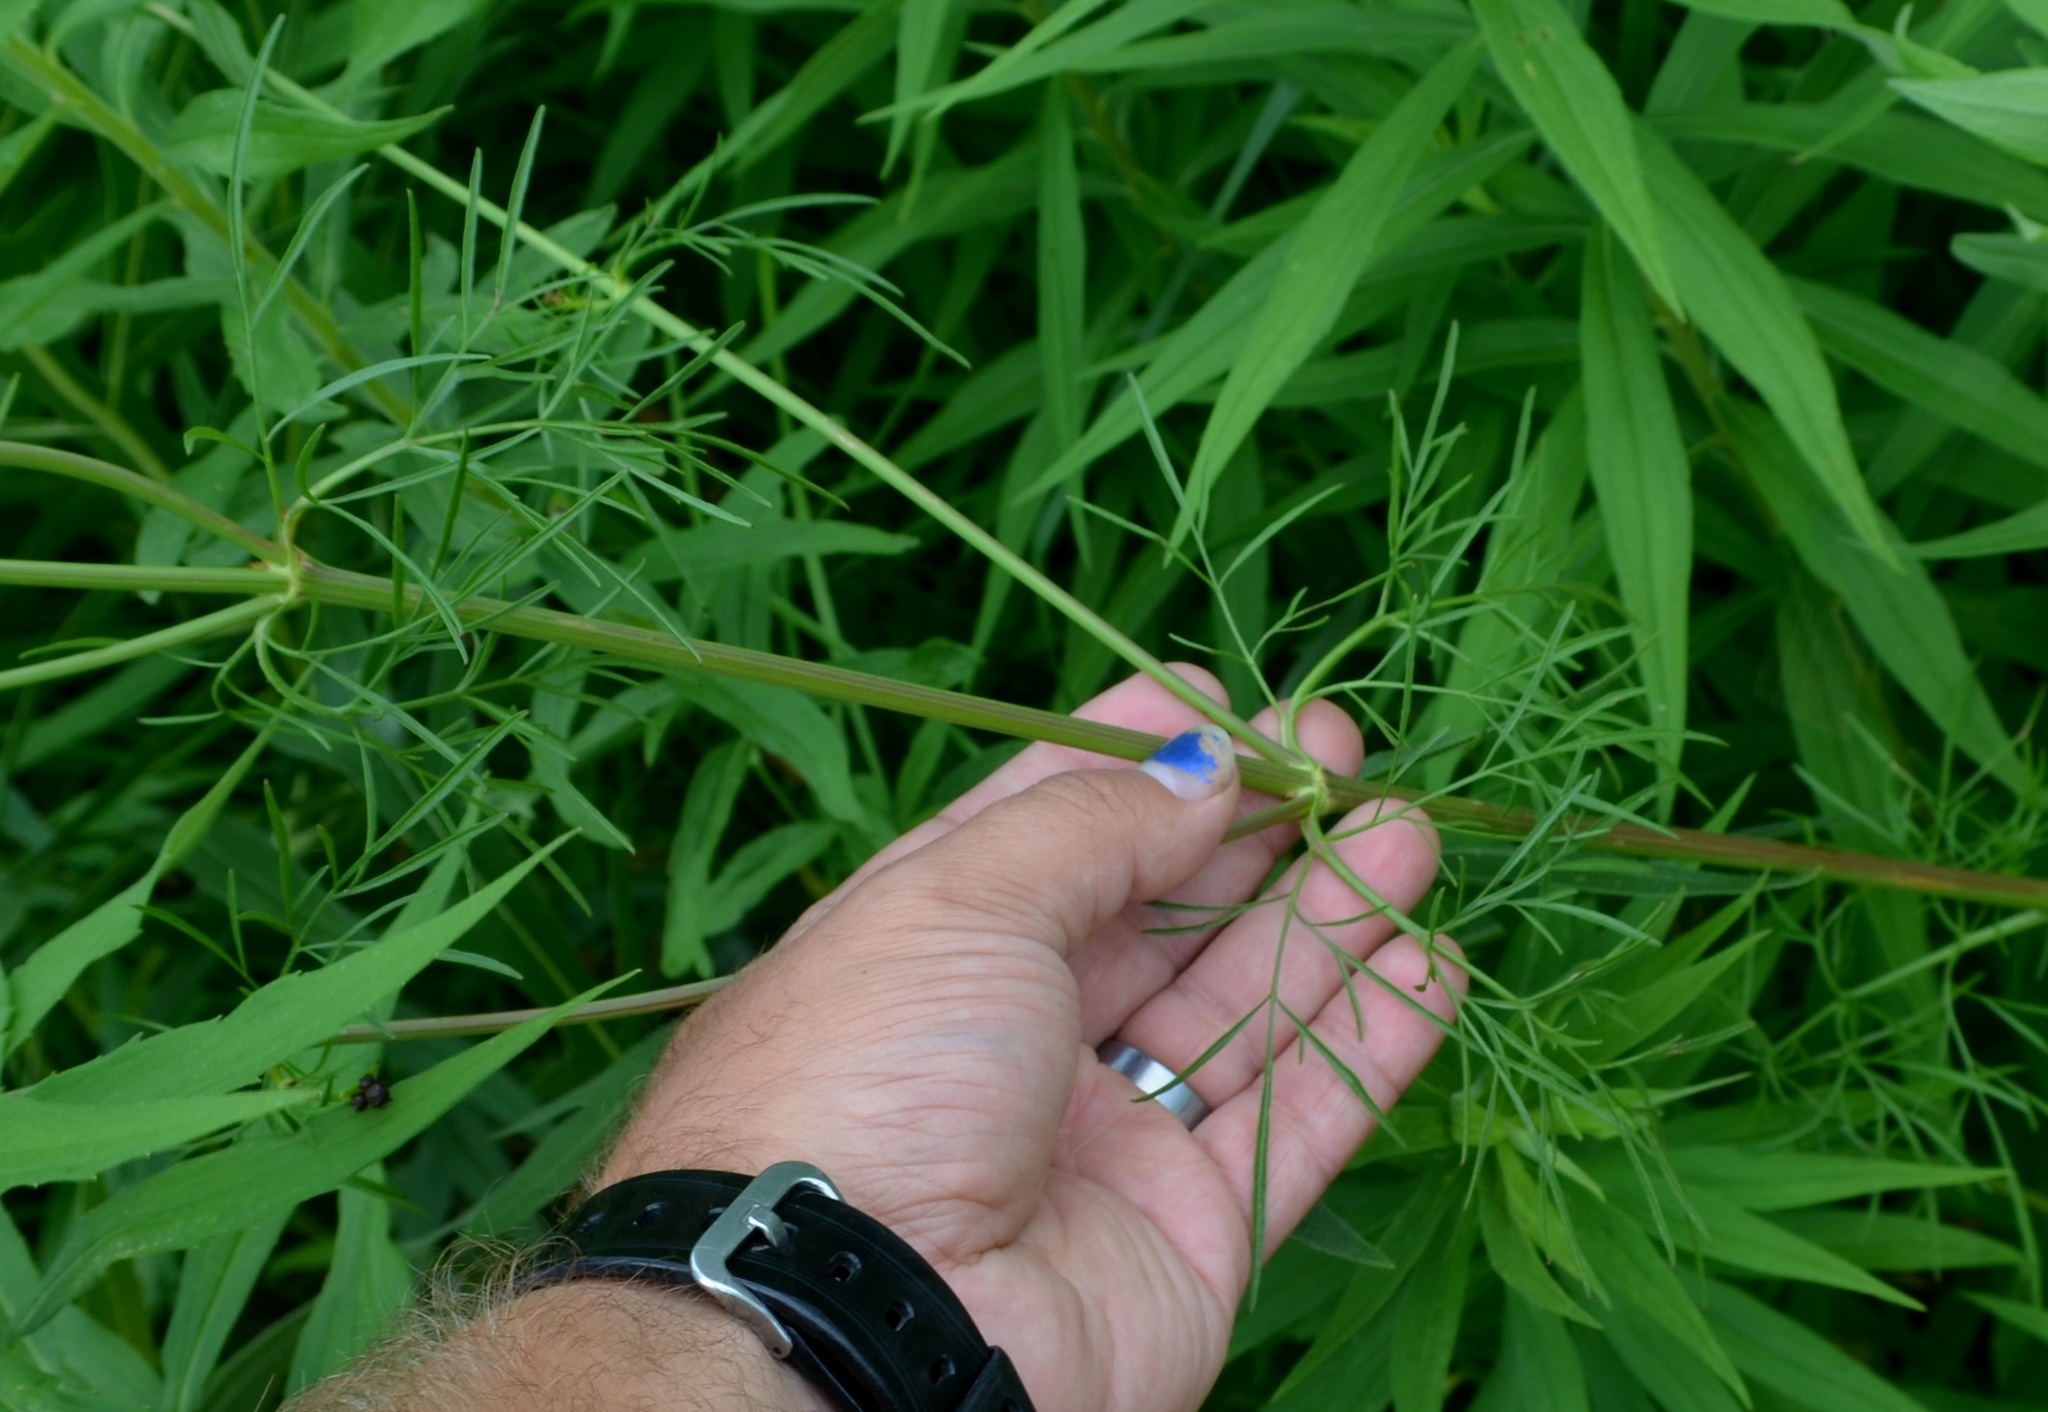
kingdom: Plantae
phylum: Tracheophyta
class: Magnoliopsida
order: Asterales
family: Asteraceae
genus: Coreopsis
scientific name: Coreopsis tinctoria
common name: Garden tickseed
